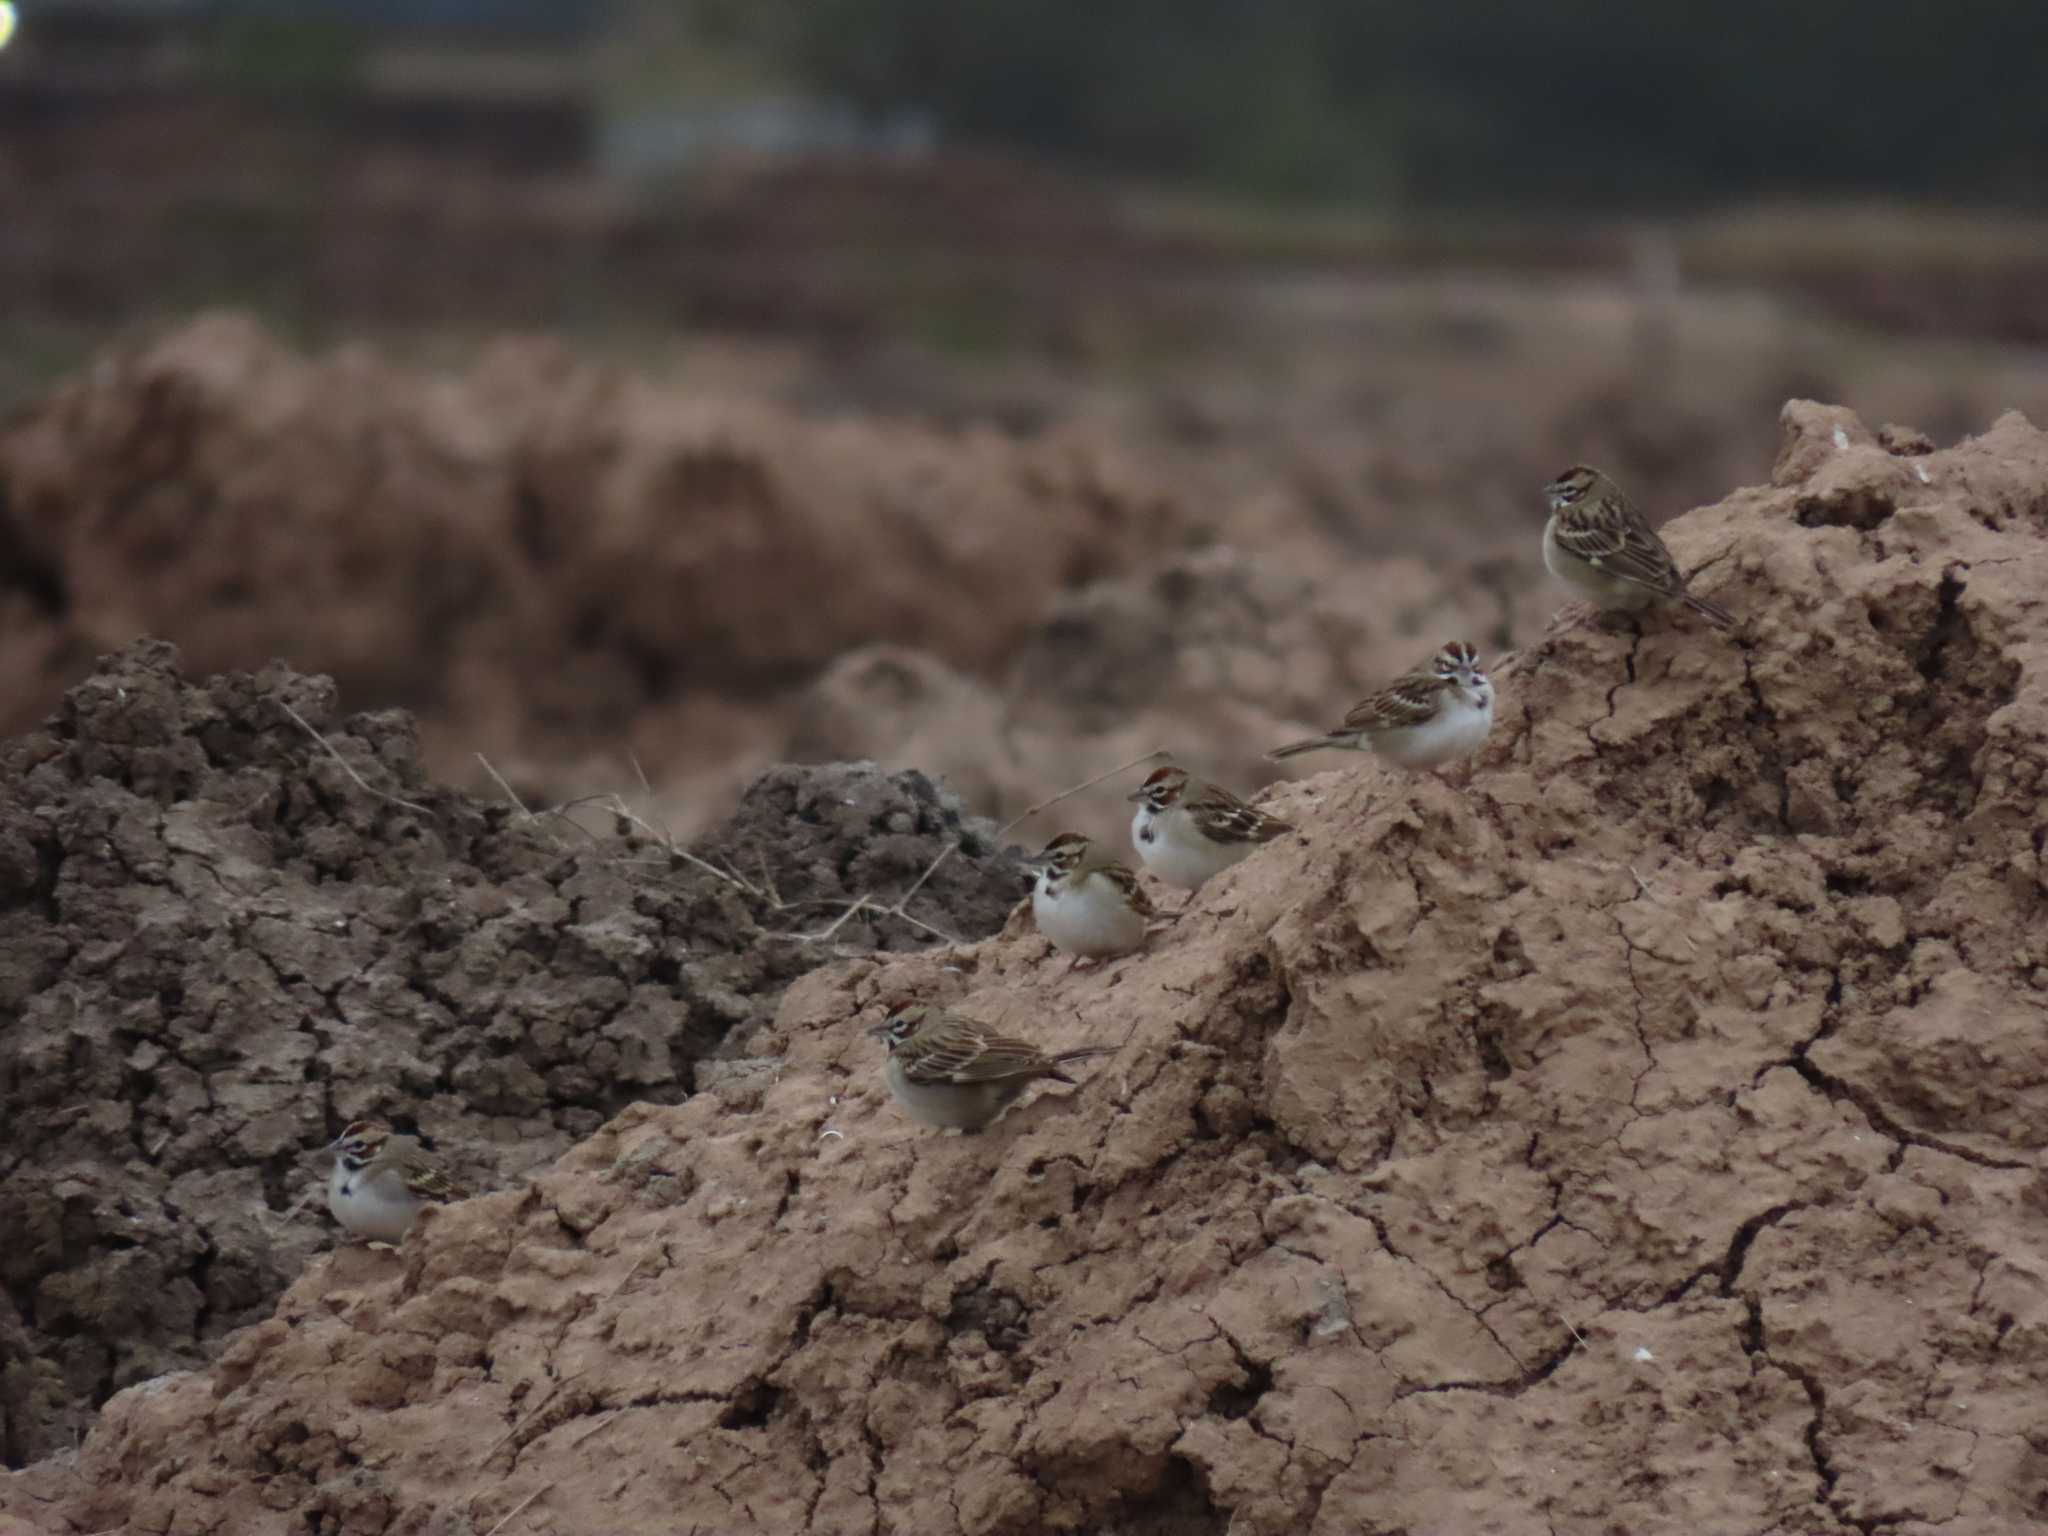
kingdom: Animalia
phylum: Chordata
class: Aves
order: Passeriformes
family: Passerellidae
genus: Chondestes
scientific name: Chondestes grammacus
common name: Lark sparrow
